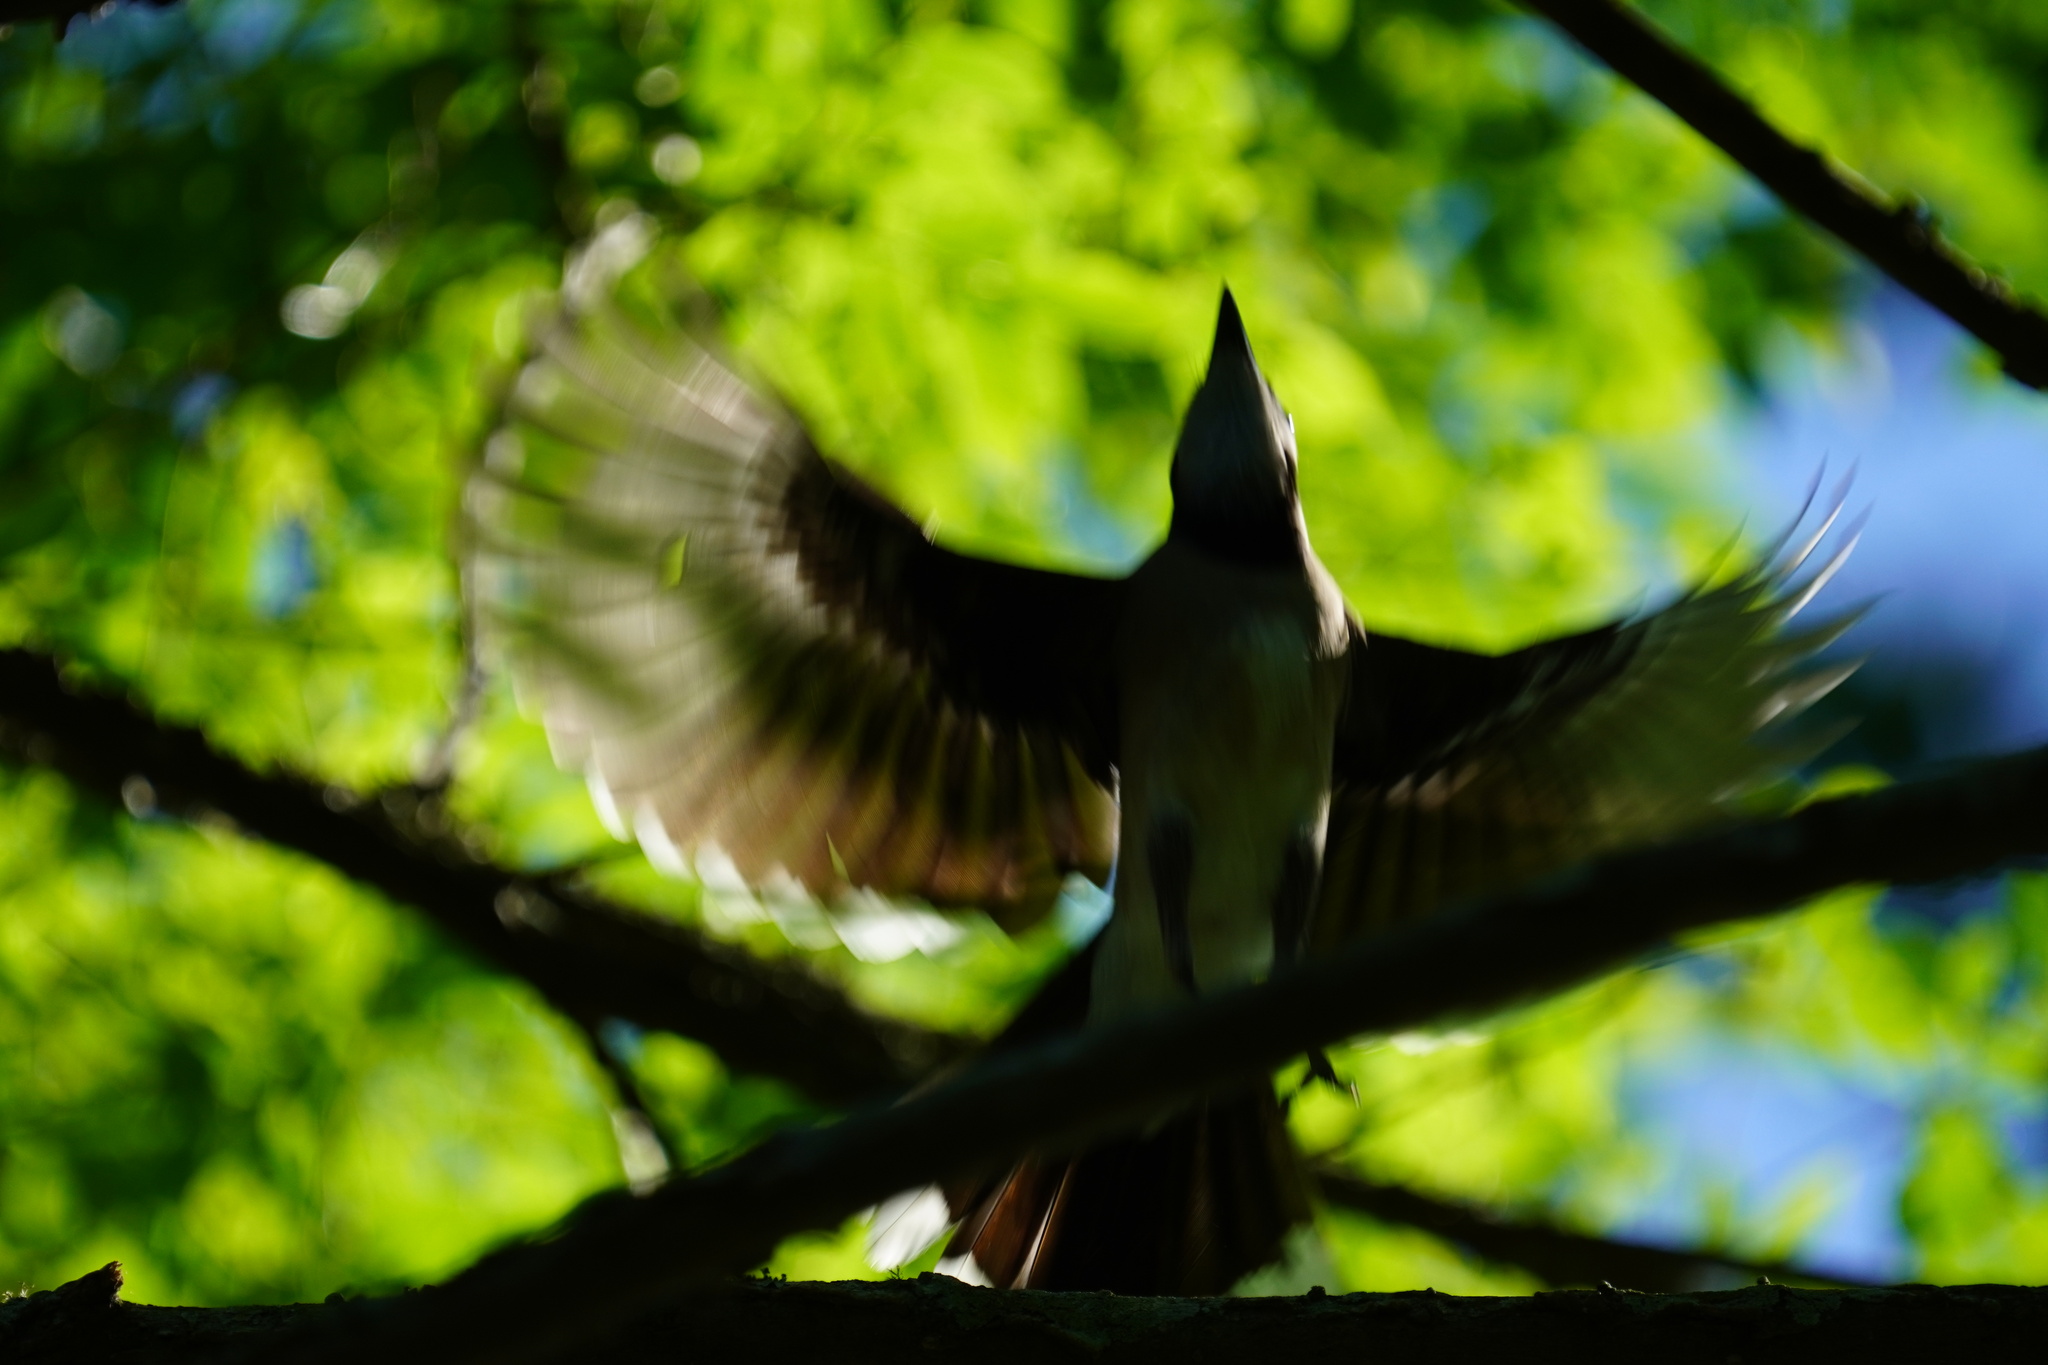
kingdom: Animalia
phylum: Chordata
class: Aves
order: Passeriformes
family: Mimidae
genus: Mimus
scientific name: Mimus polyglottos
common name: Northern mockingbird
